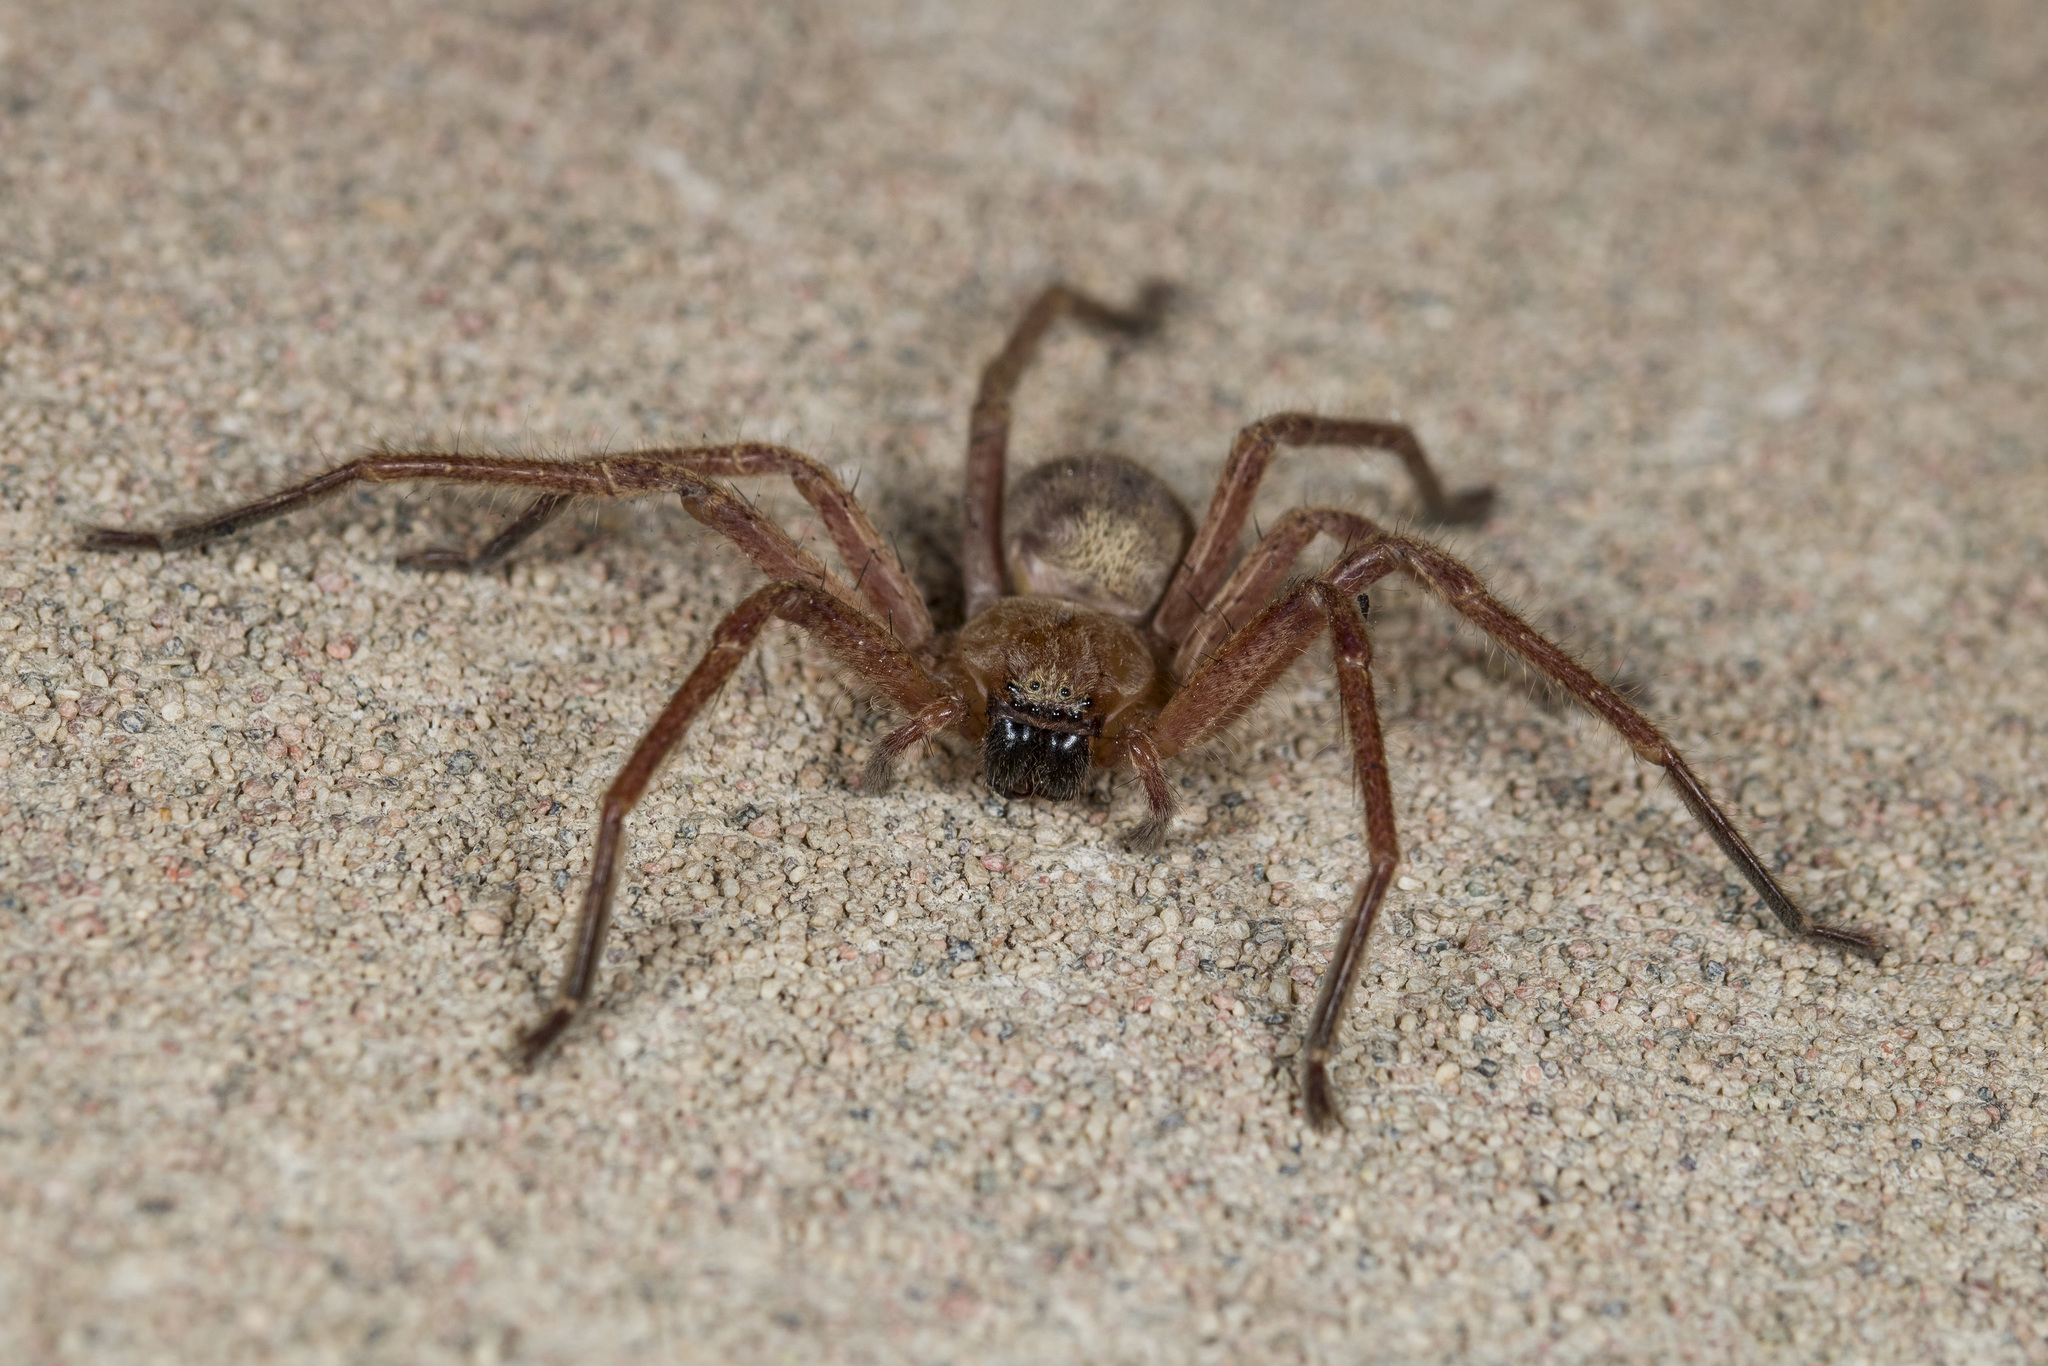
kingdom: Animalia
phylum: Arthropoda
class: Arachnida
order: Araneae
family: Sparassidae
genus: Olios
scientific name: Olios sericeus
